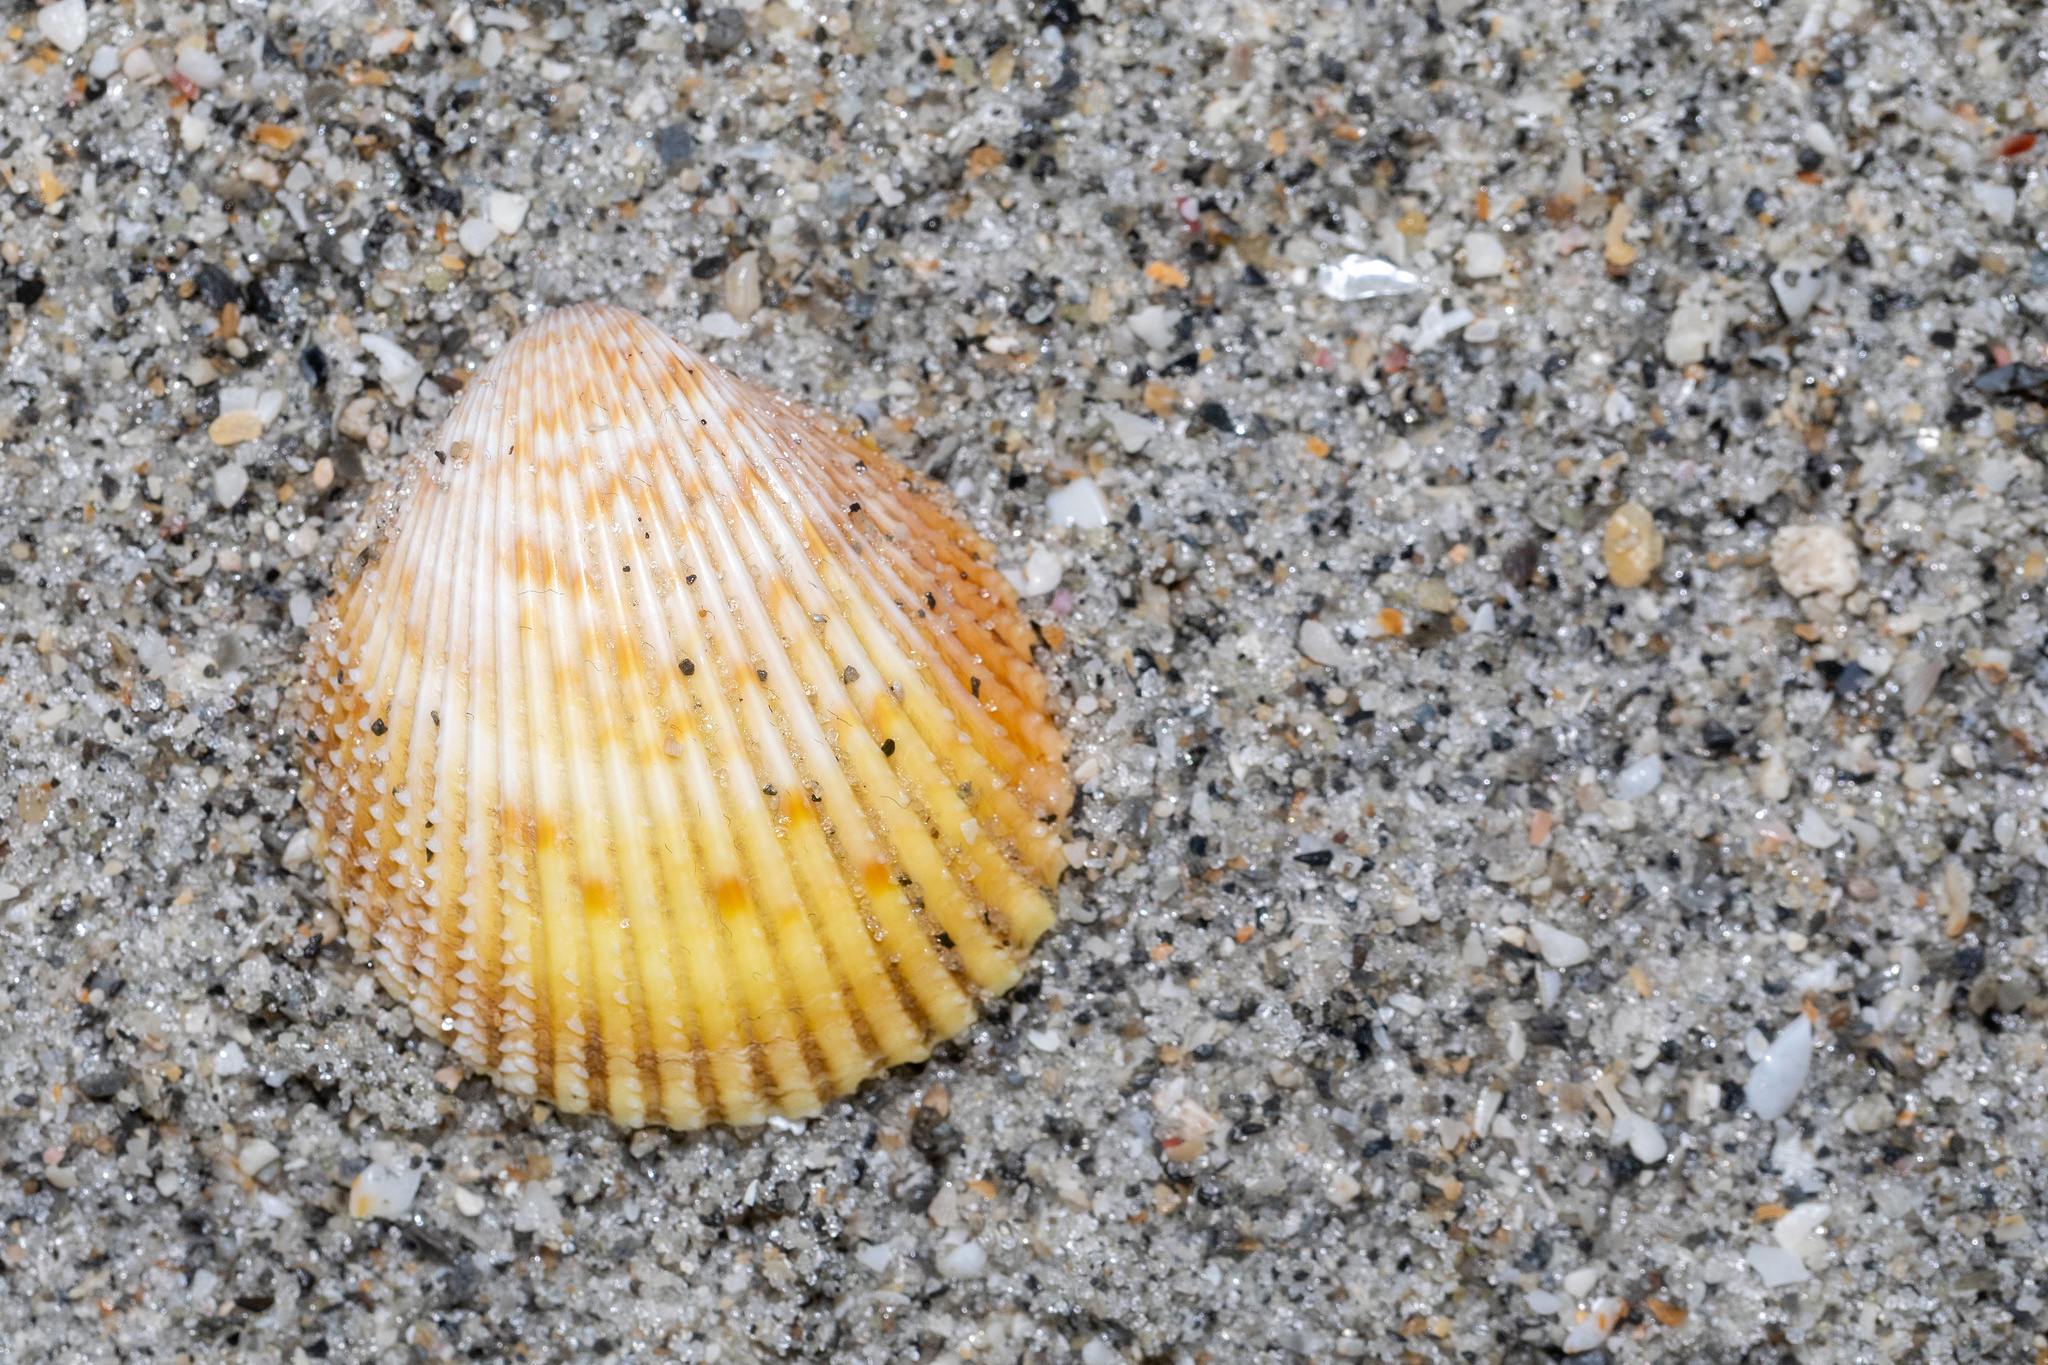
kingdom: Animalia
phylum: Mollusca
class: Bivalvia
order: Cardiida
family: Cardiidae
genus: Dallocardia
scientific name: Dallocardia muricata
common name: Yellow pricklycockle
